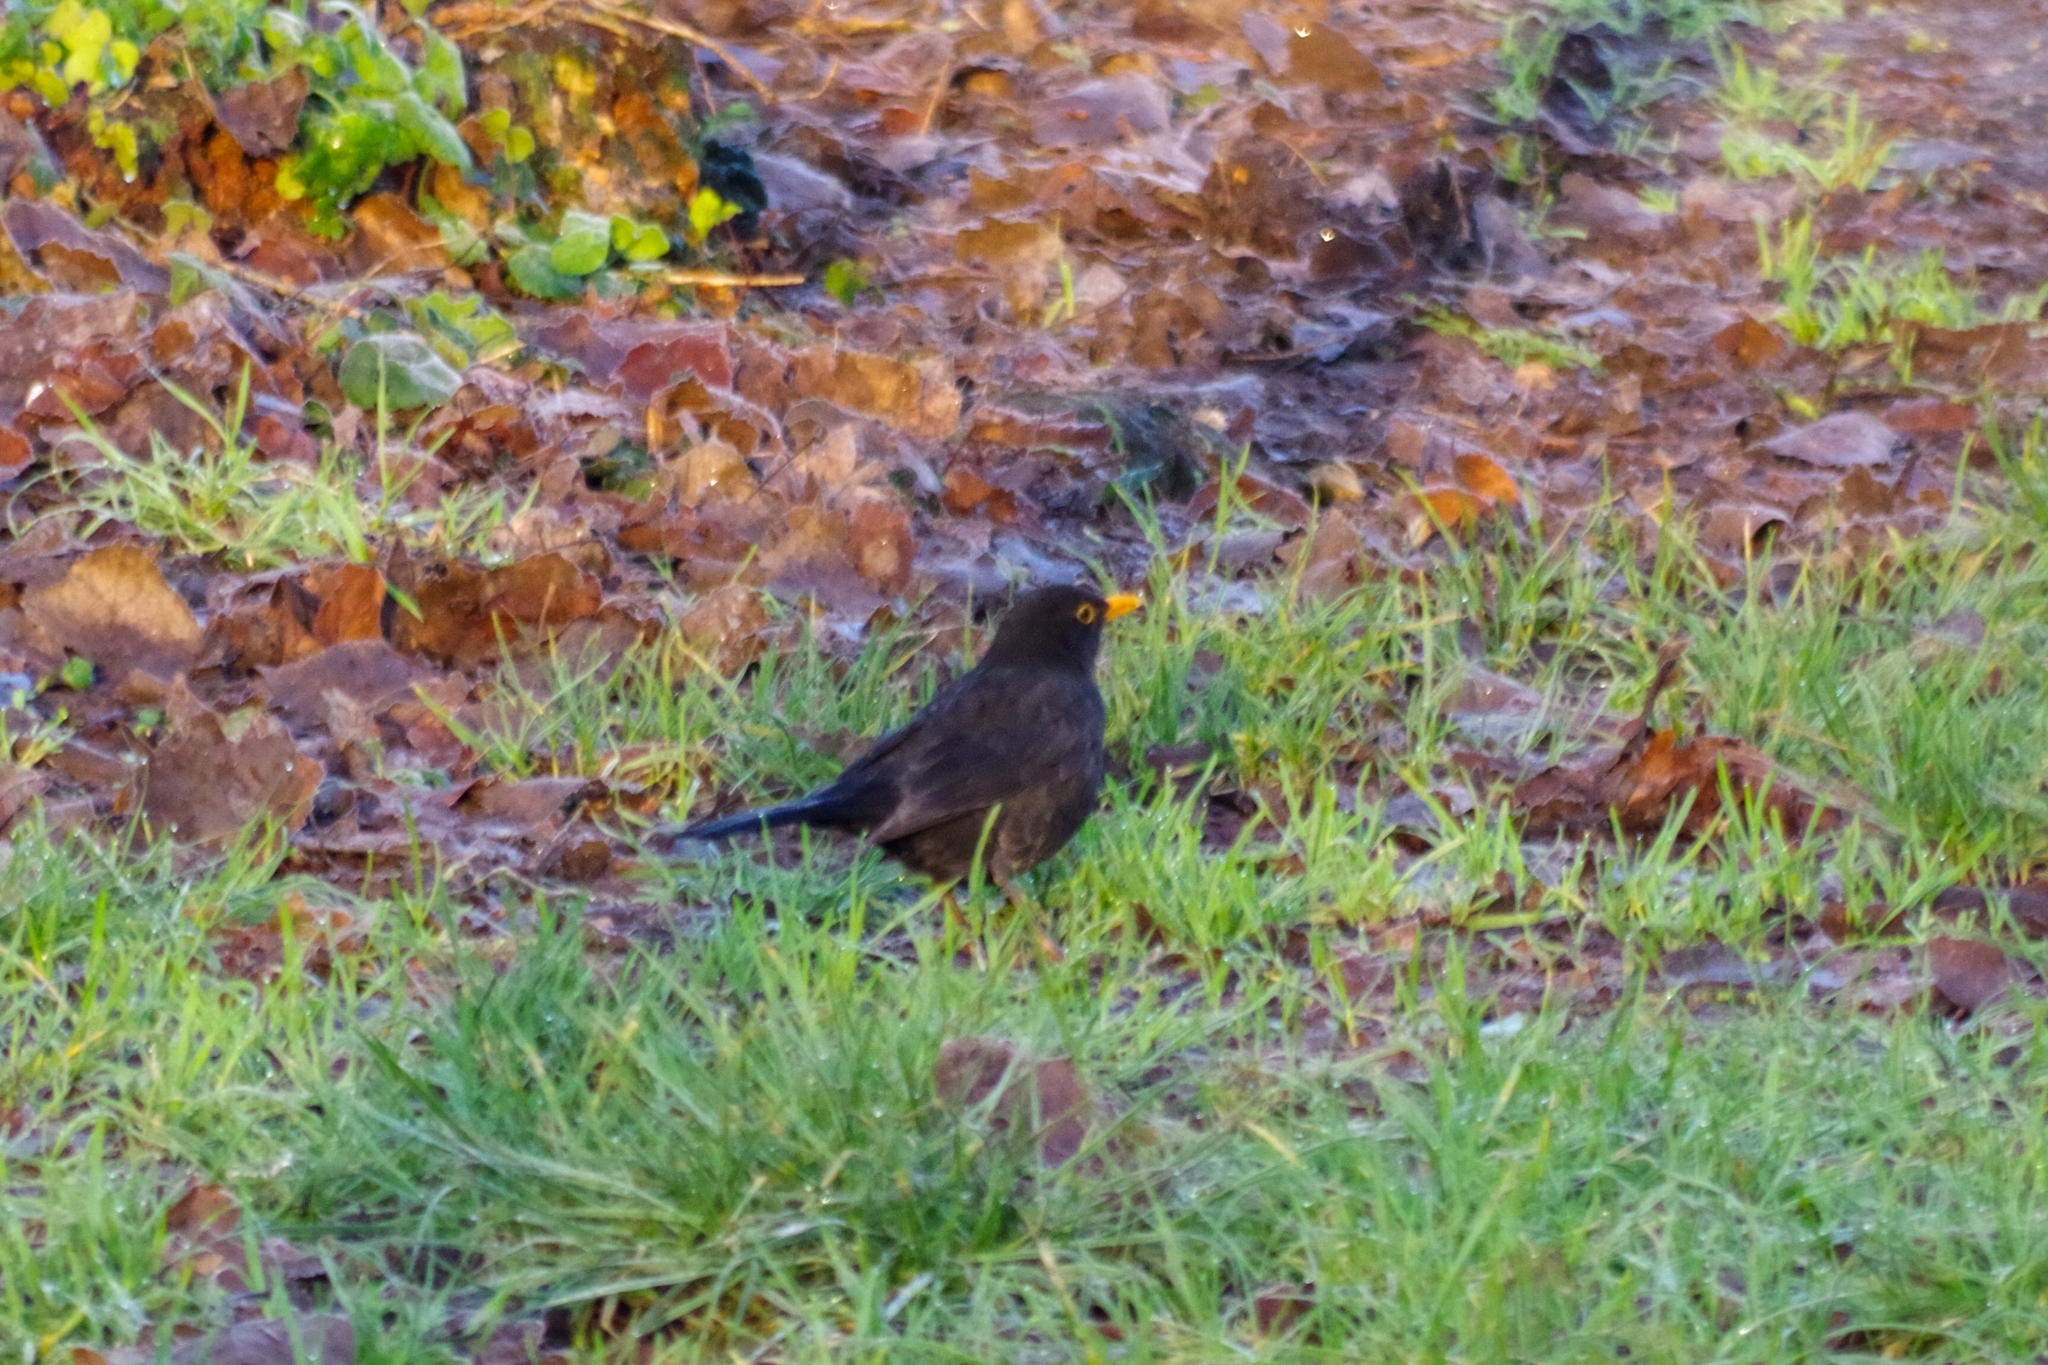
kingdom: Animalia
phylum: Chordata
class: Aves
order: Passeriformes
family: Turdidae
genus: Turdus
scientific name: Turdus merula
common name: Common blackbird
